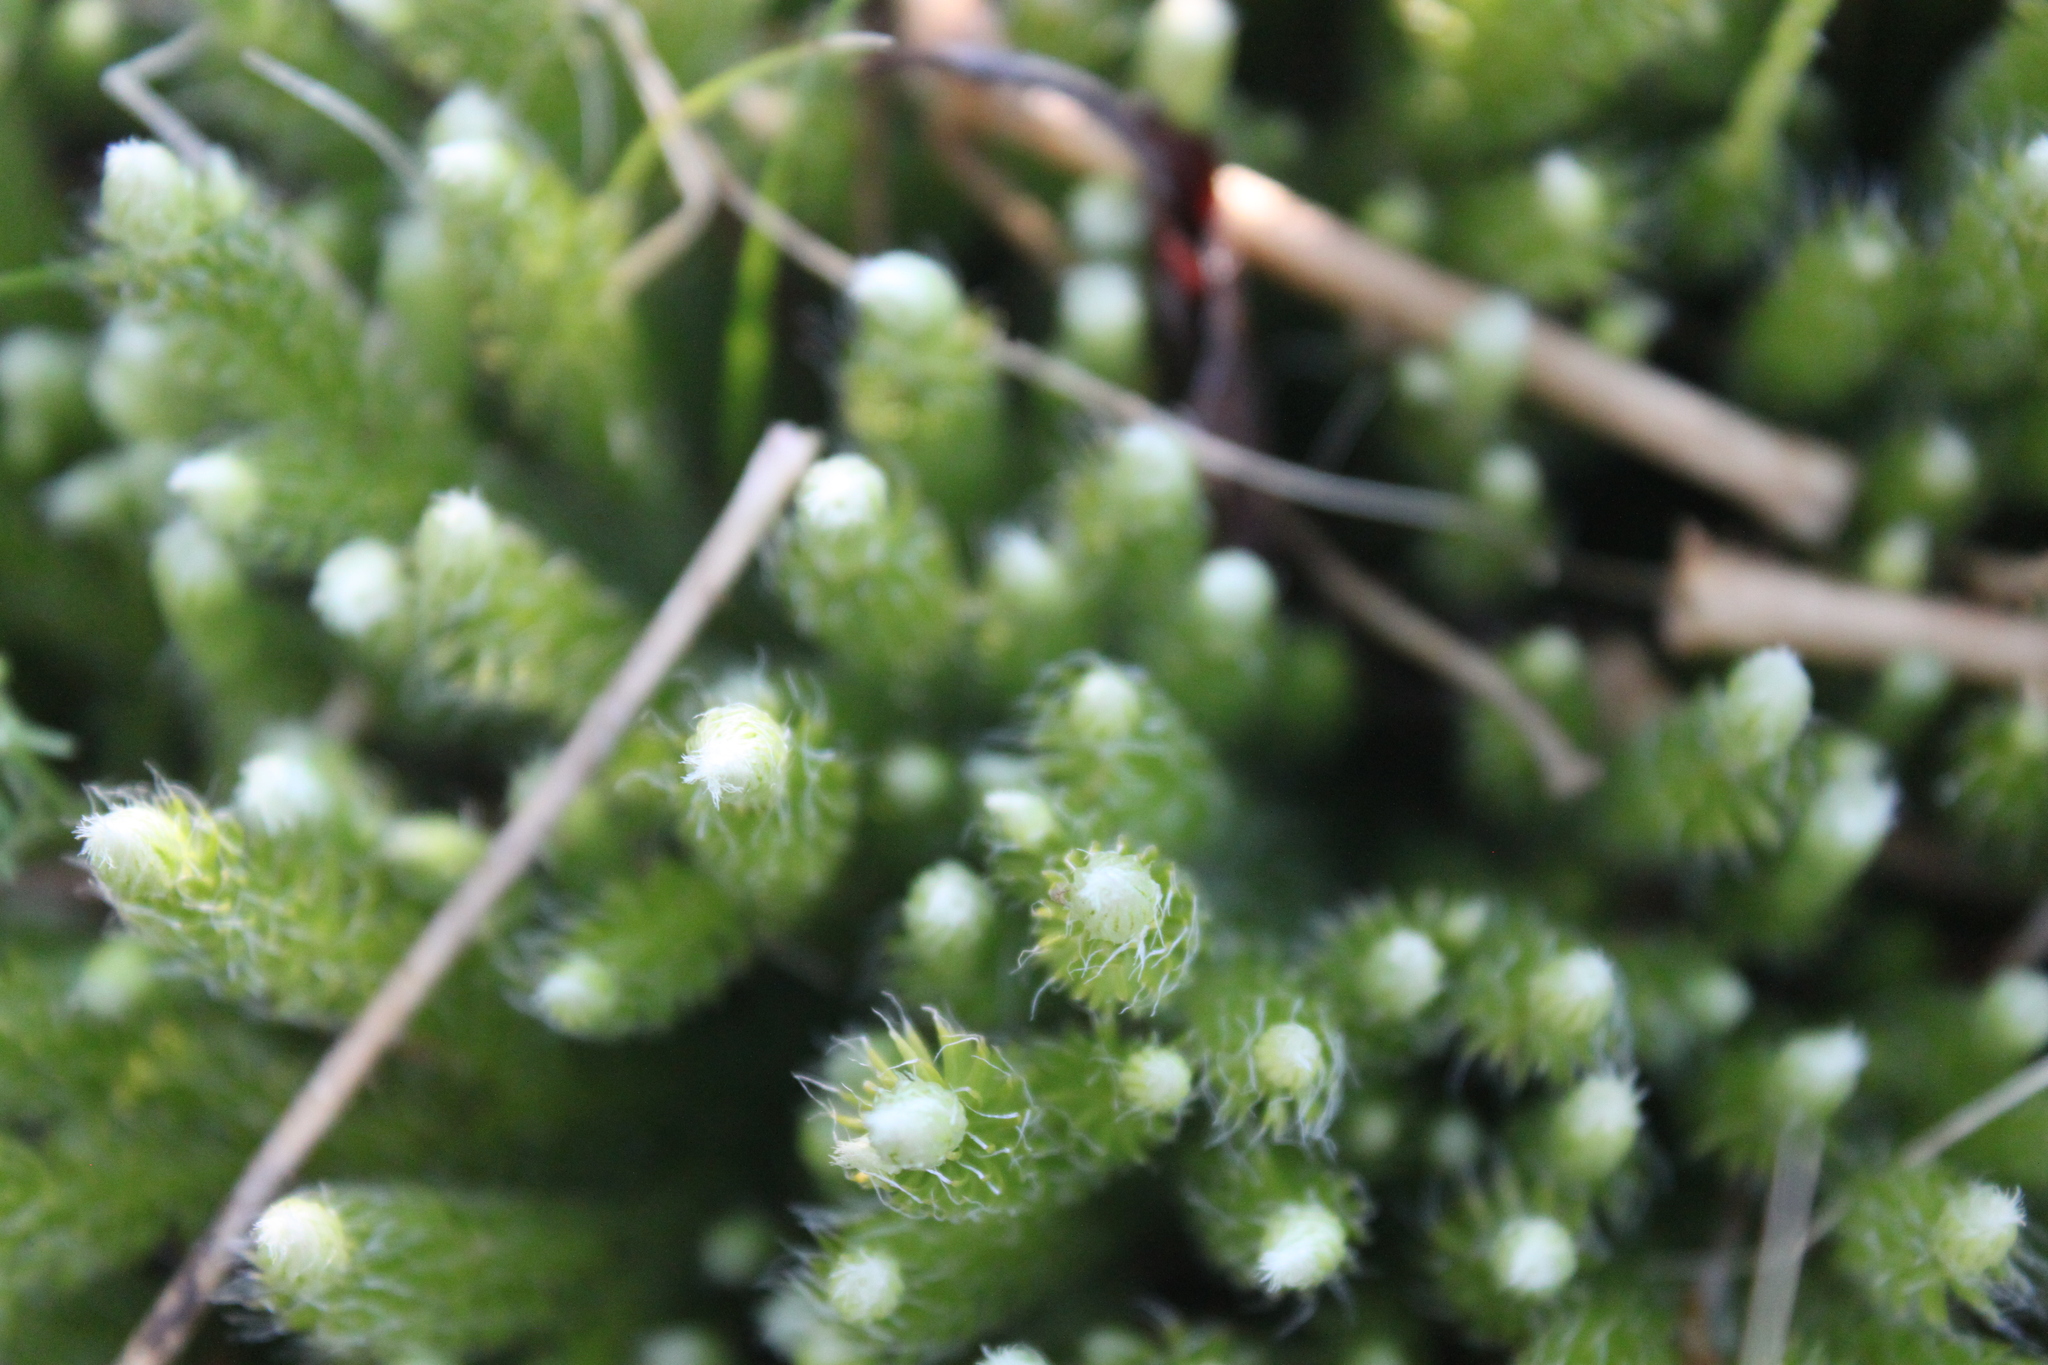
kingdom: Plantae
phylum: Tracheophyta
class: Lycopodiopsida
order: Lycopodiales
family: Lycopodiaceae
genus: Lycopodium
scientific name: Lycopodium lagopus
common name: One-cone clubmoss
